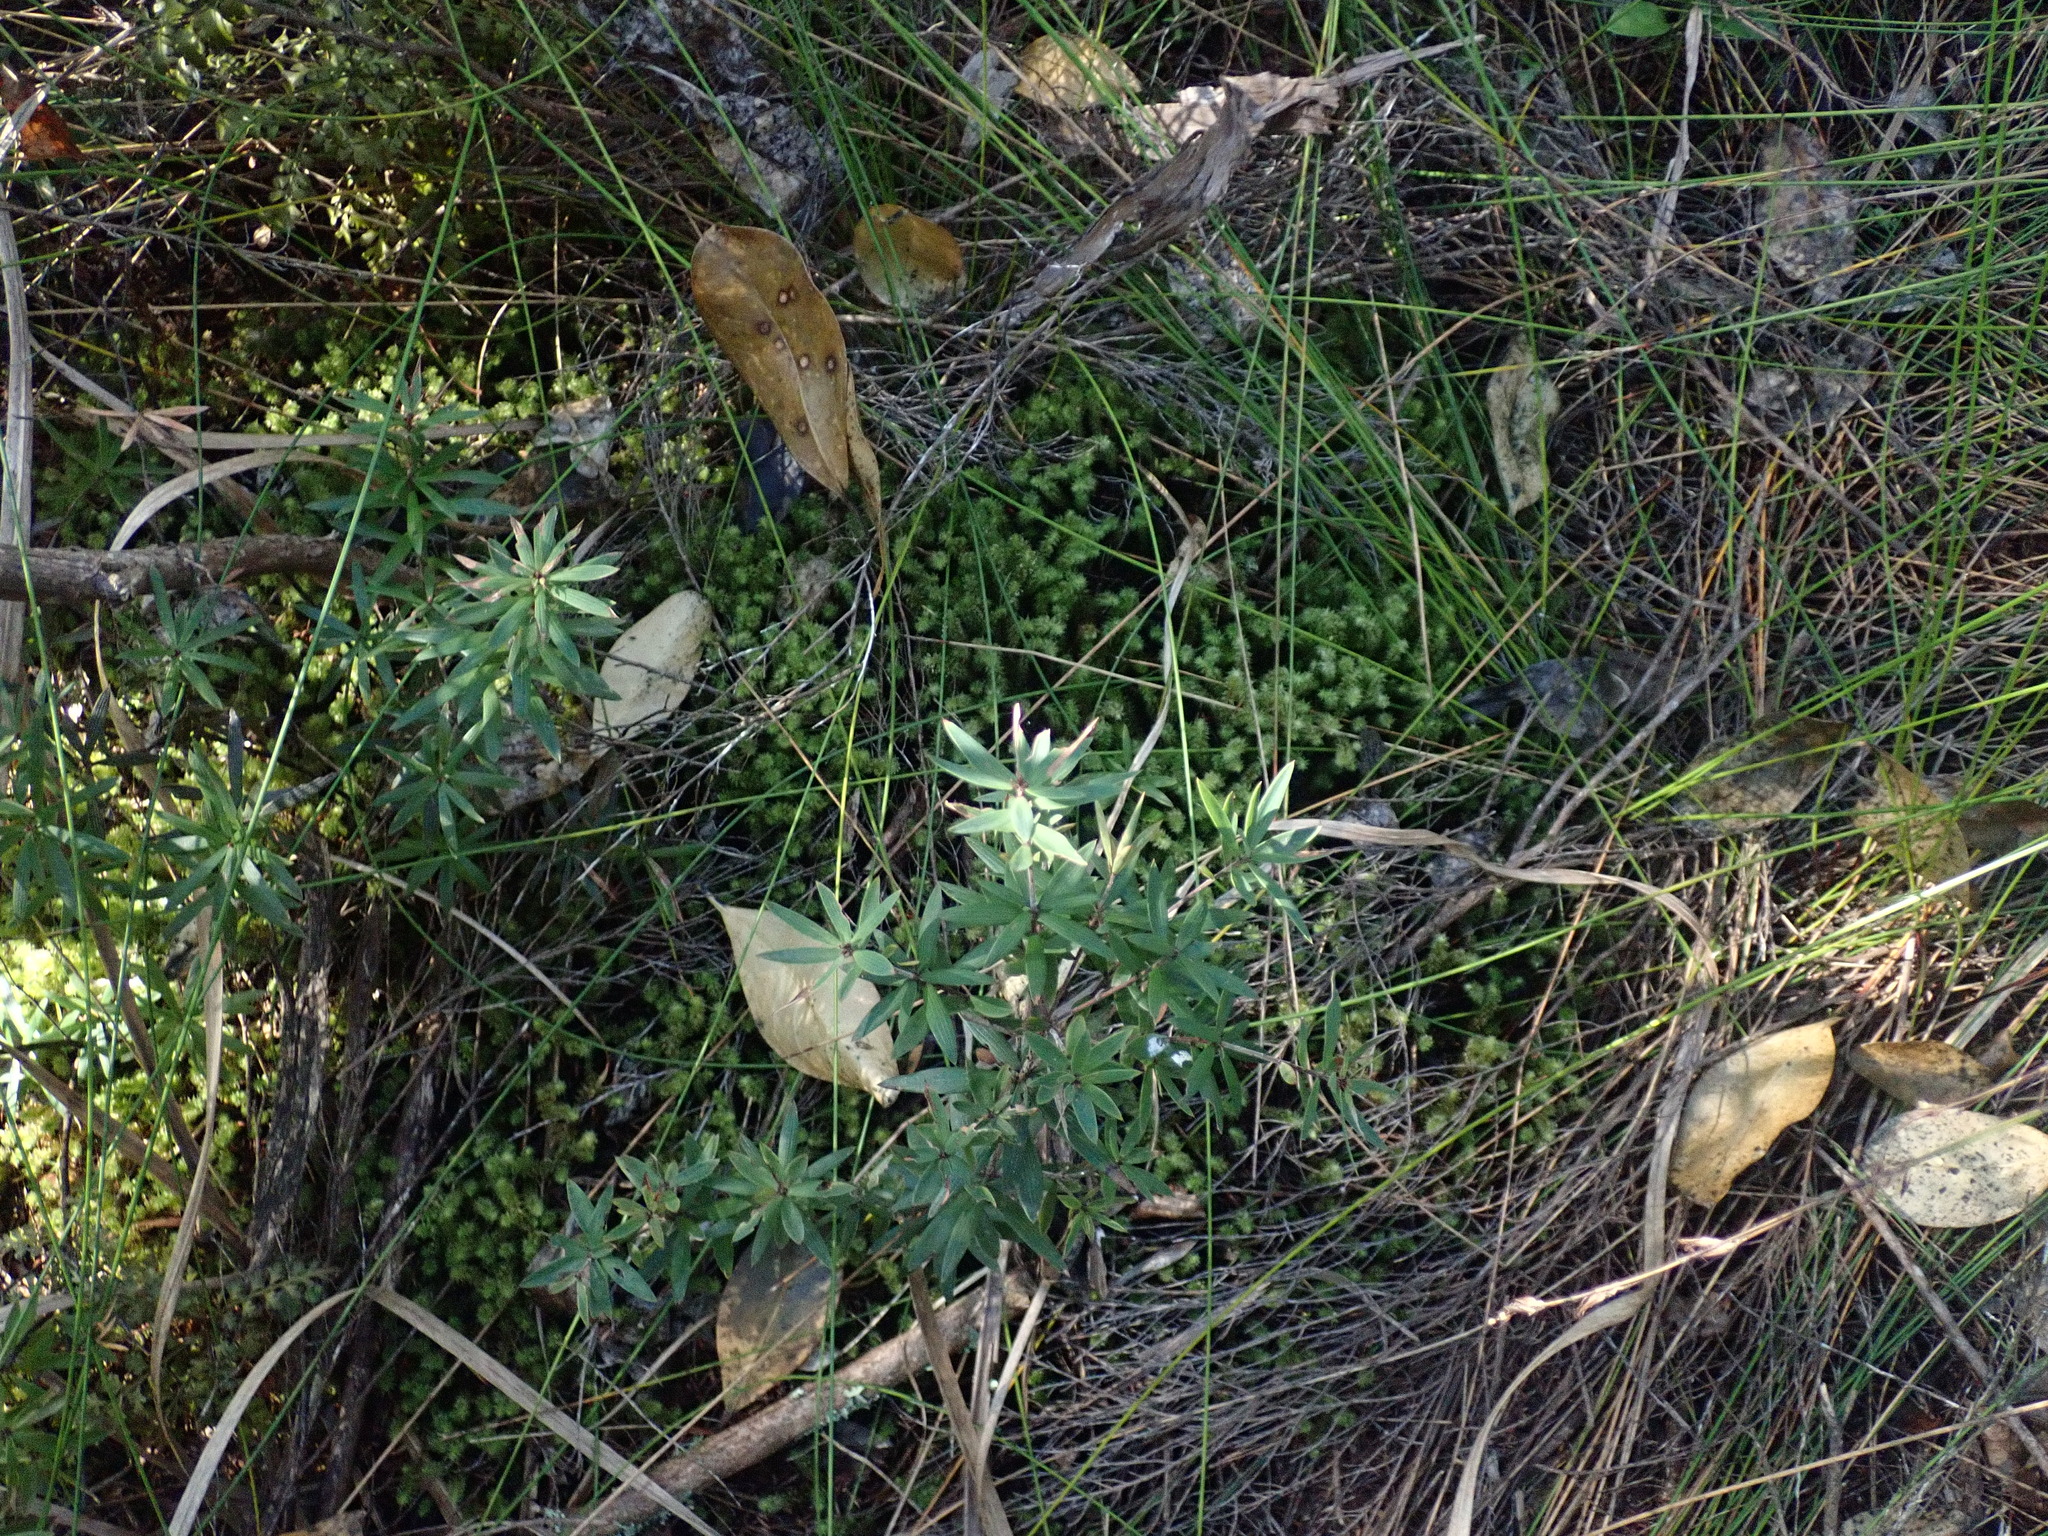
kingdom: Plantae
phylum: Tracheophyta
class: Magnoliopsida
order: Ericales
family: Ericaceae
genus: Leucopogon
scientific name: Leucopogon fasciculatus
